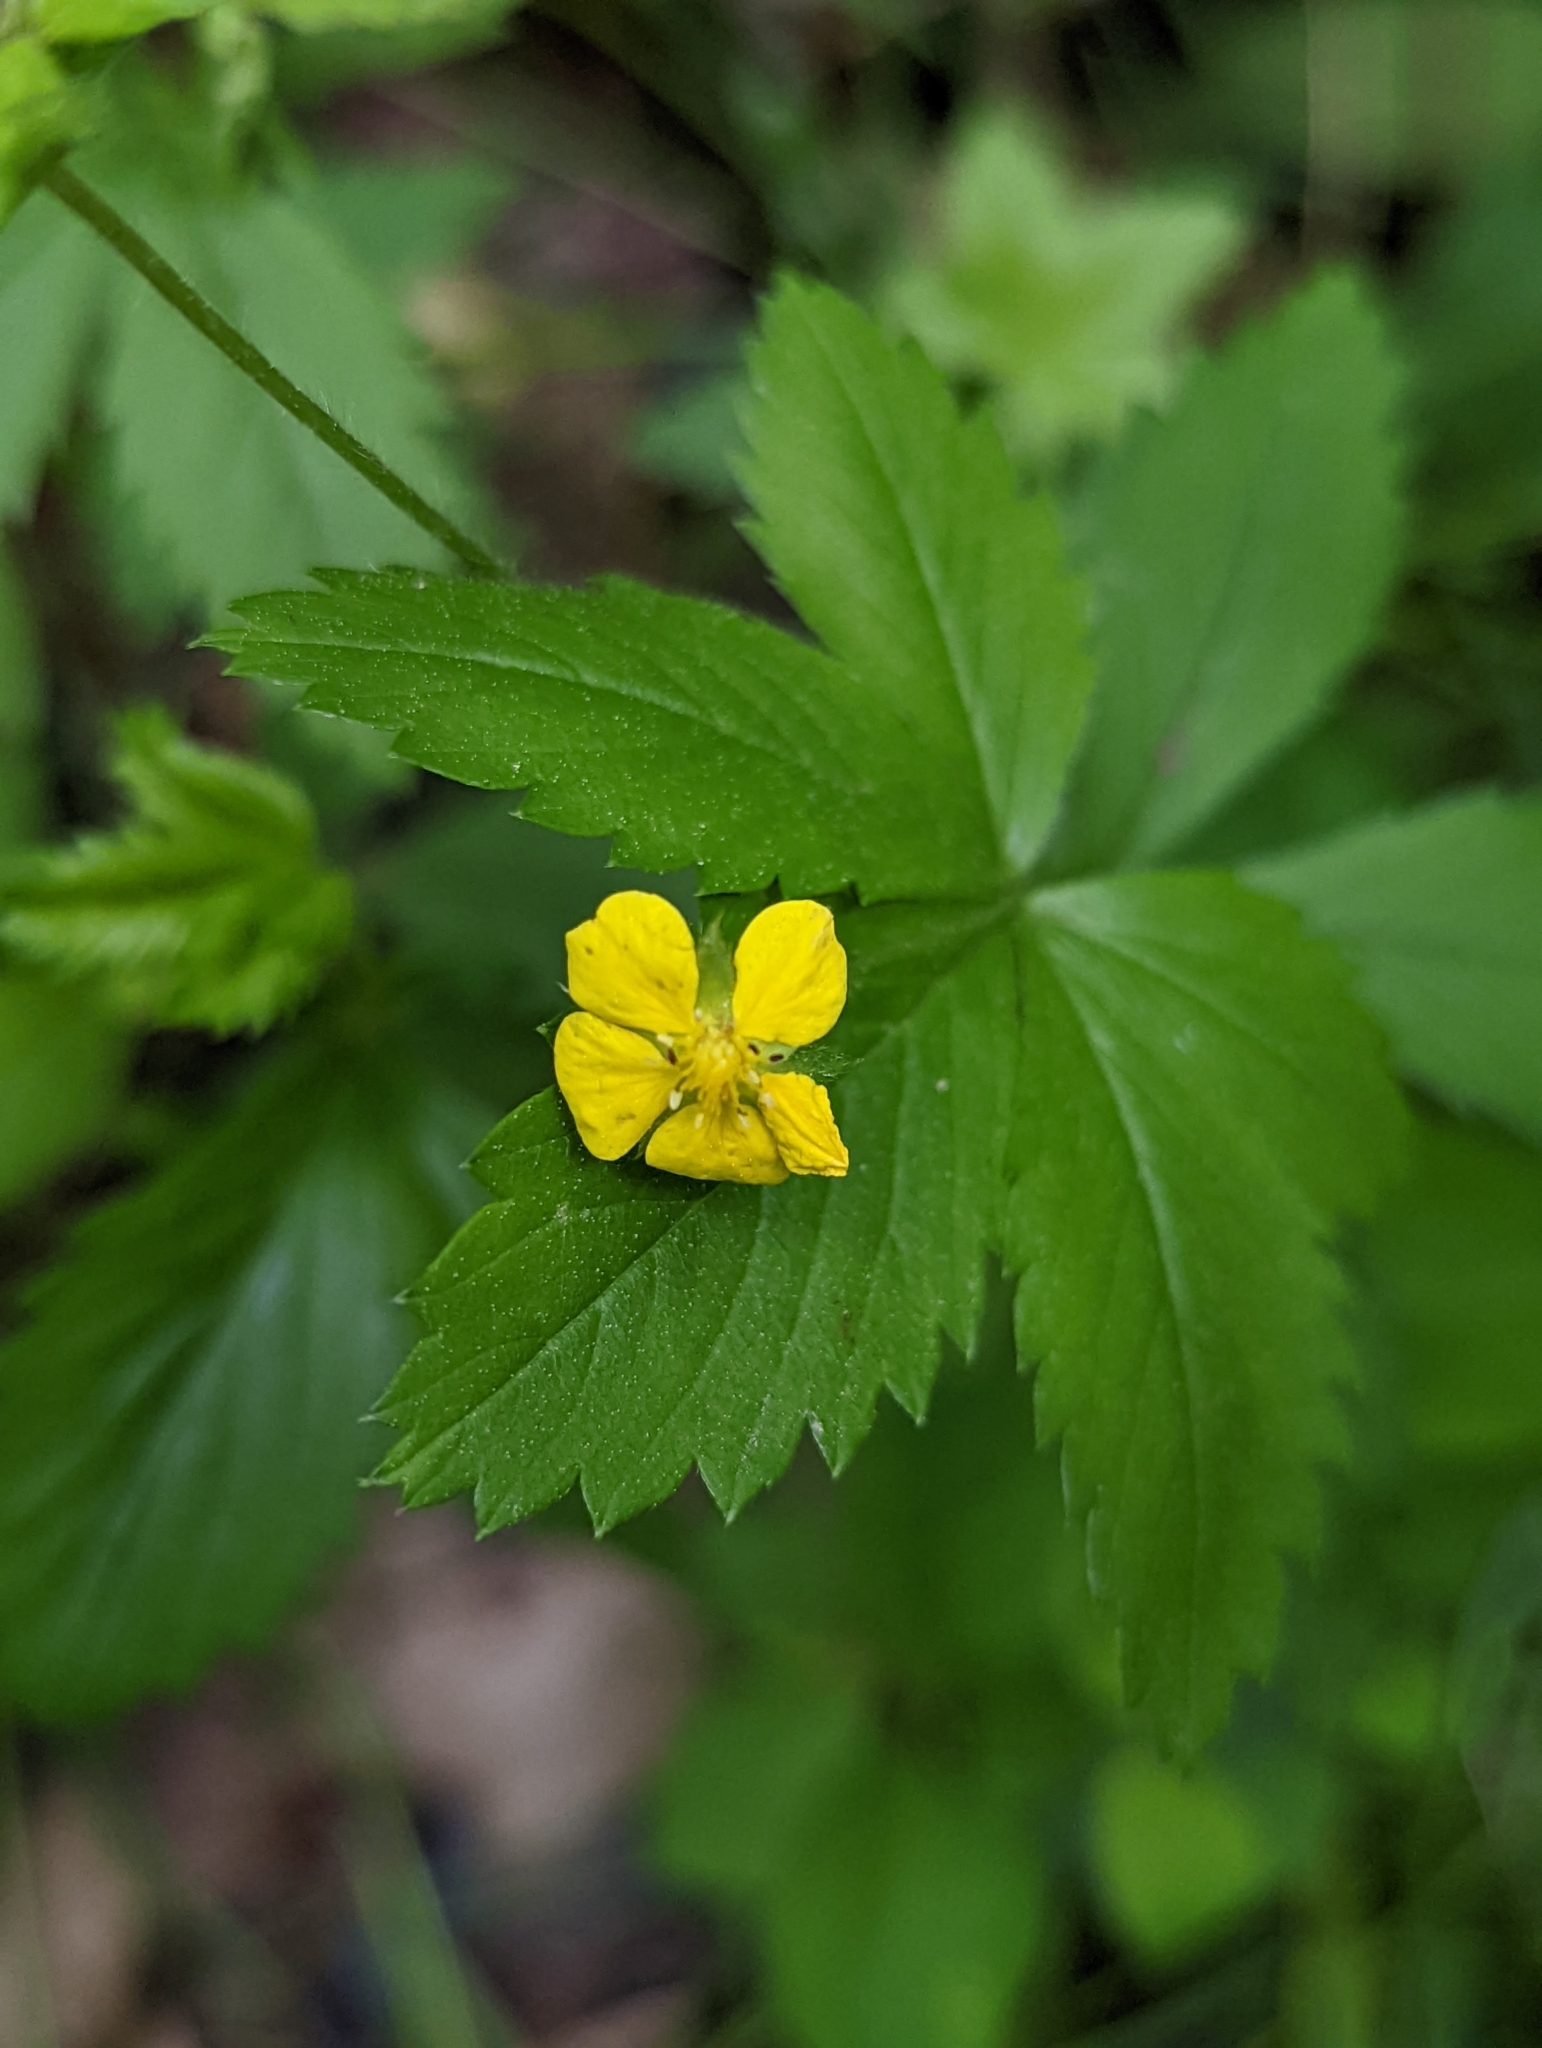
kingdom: Plantae
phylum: Tracheophyta
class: Magnoliopsida
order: Rosales
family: Rosaceae
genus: Potentilla
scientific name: Potentilla simplex
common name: Old field cinquefoil
